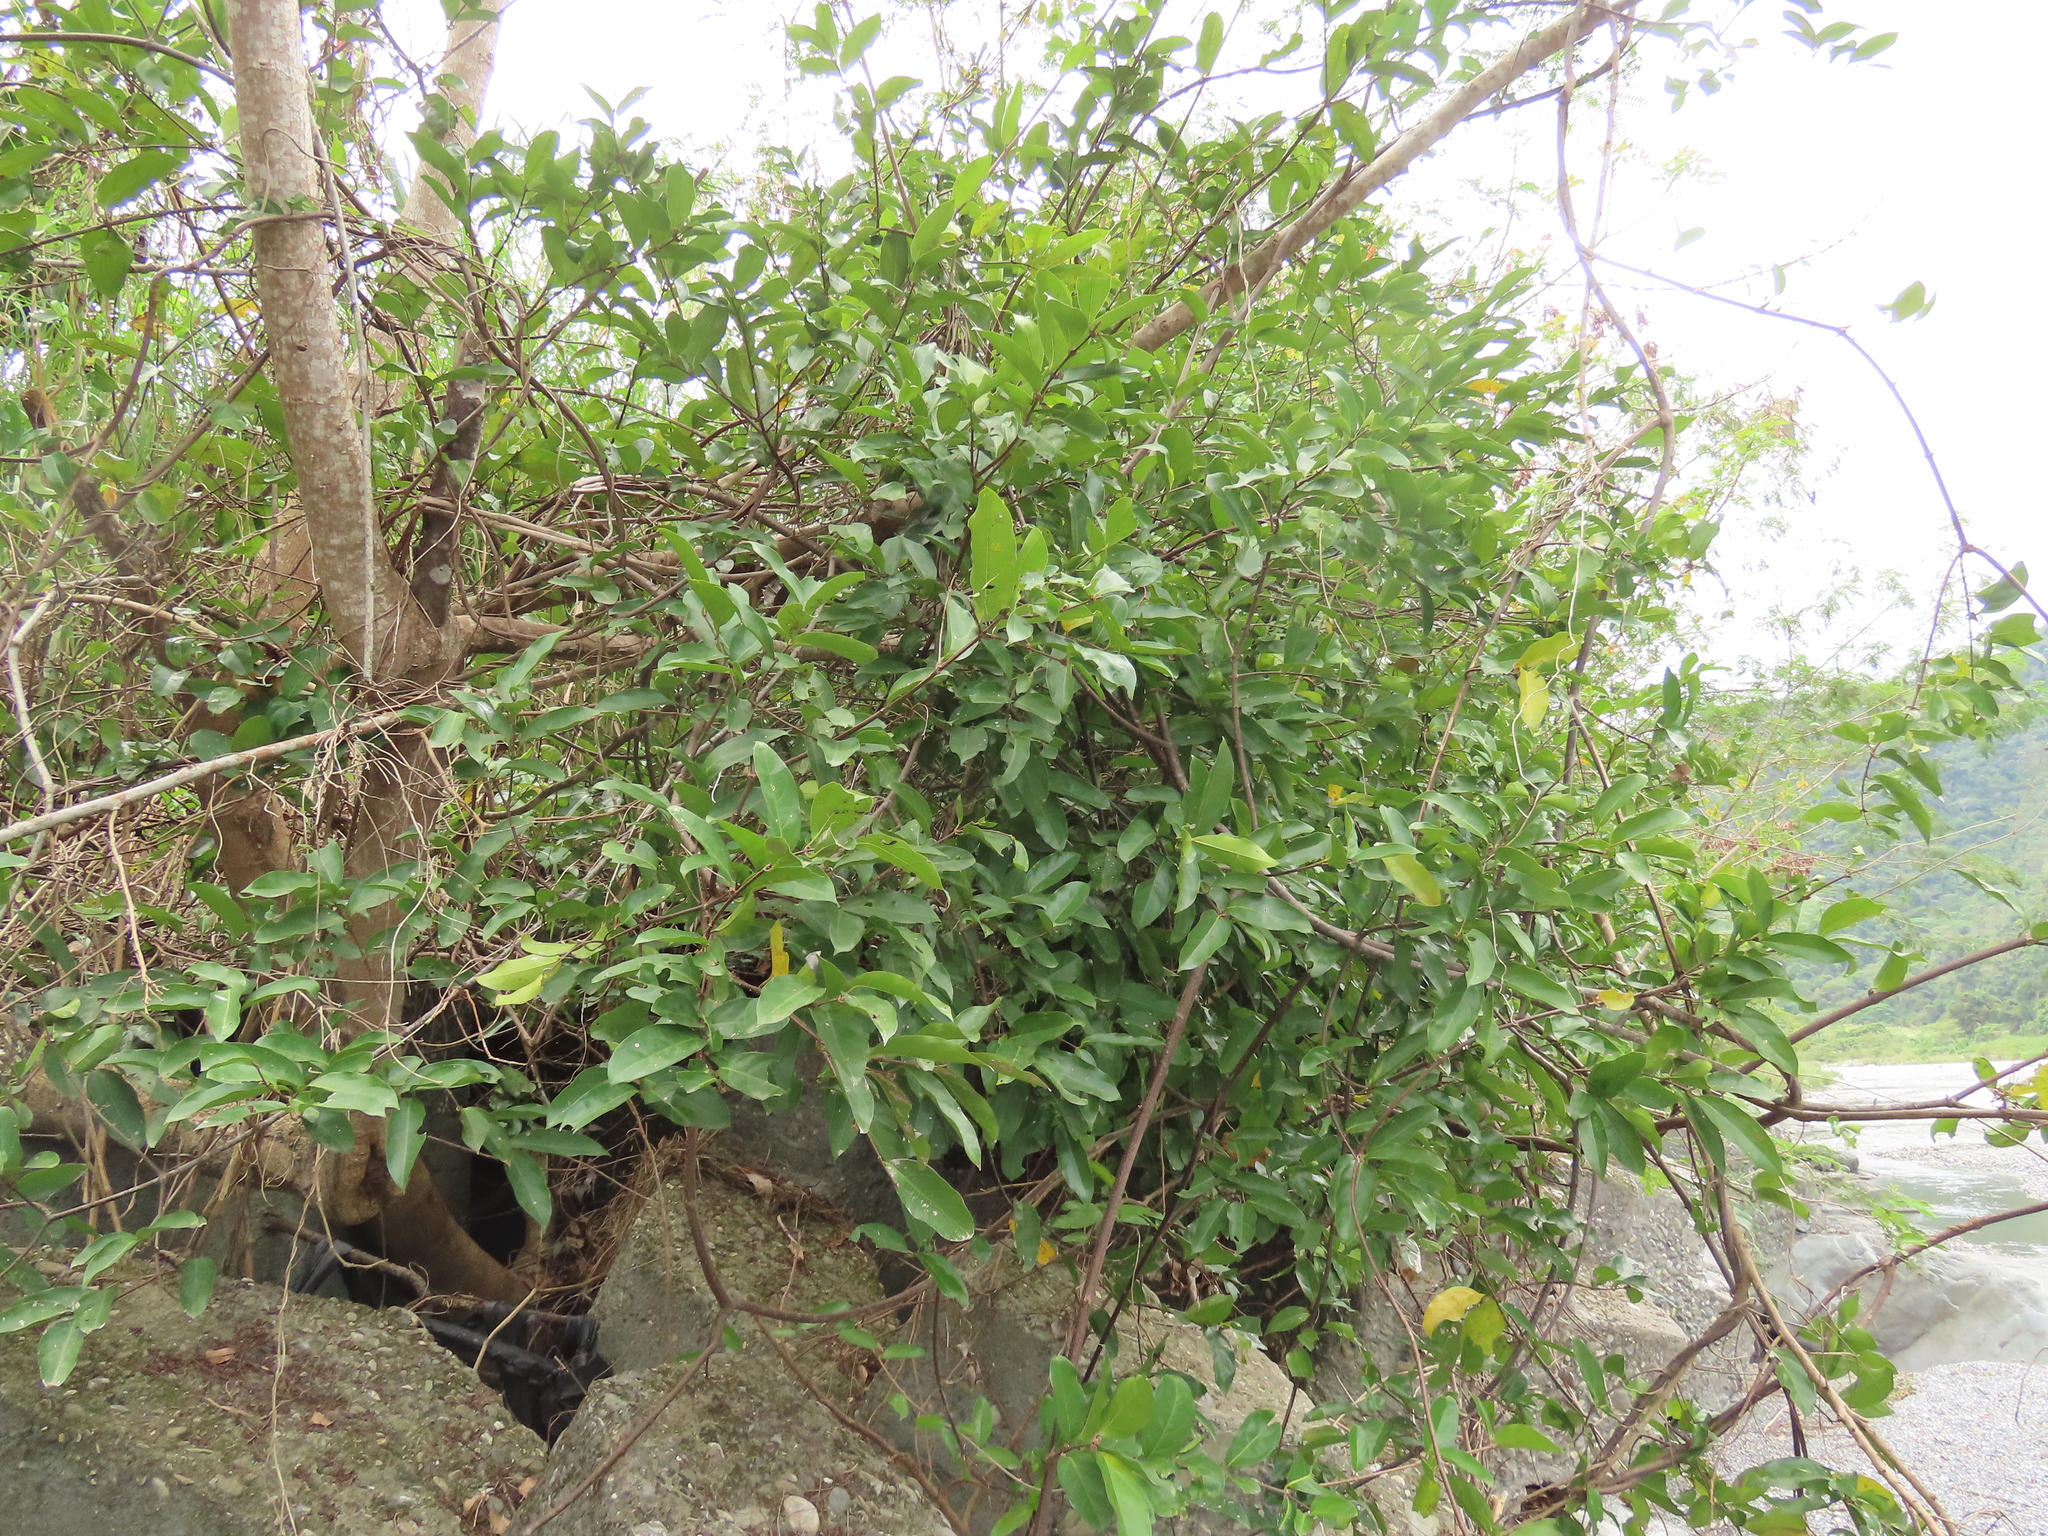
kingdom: Plantae
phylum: Tracheophyta
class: Magnoliopsida
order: Malpighiales
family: Malpighiaceae
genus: Hiptage
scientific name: Hiptage benghalensis
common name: Hiptage
